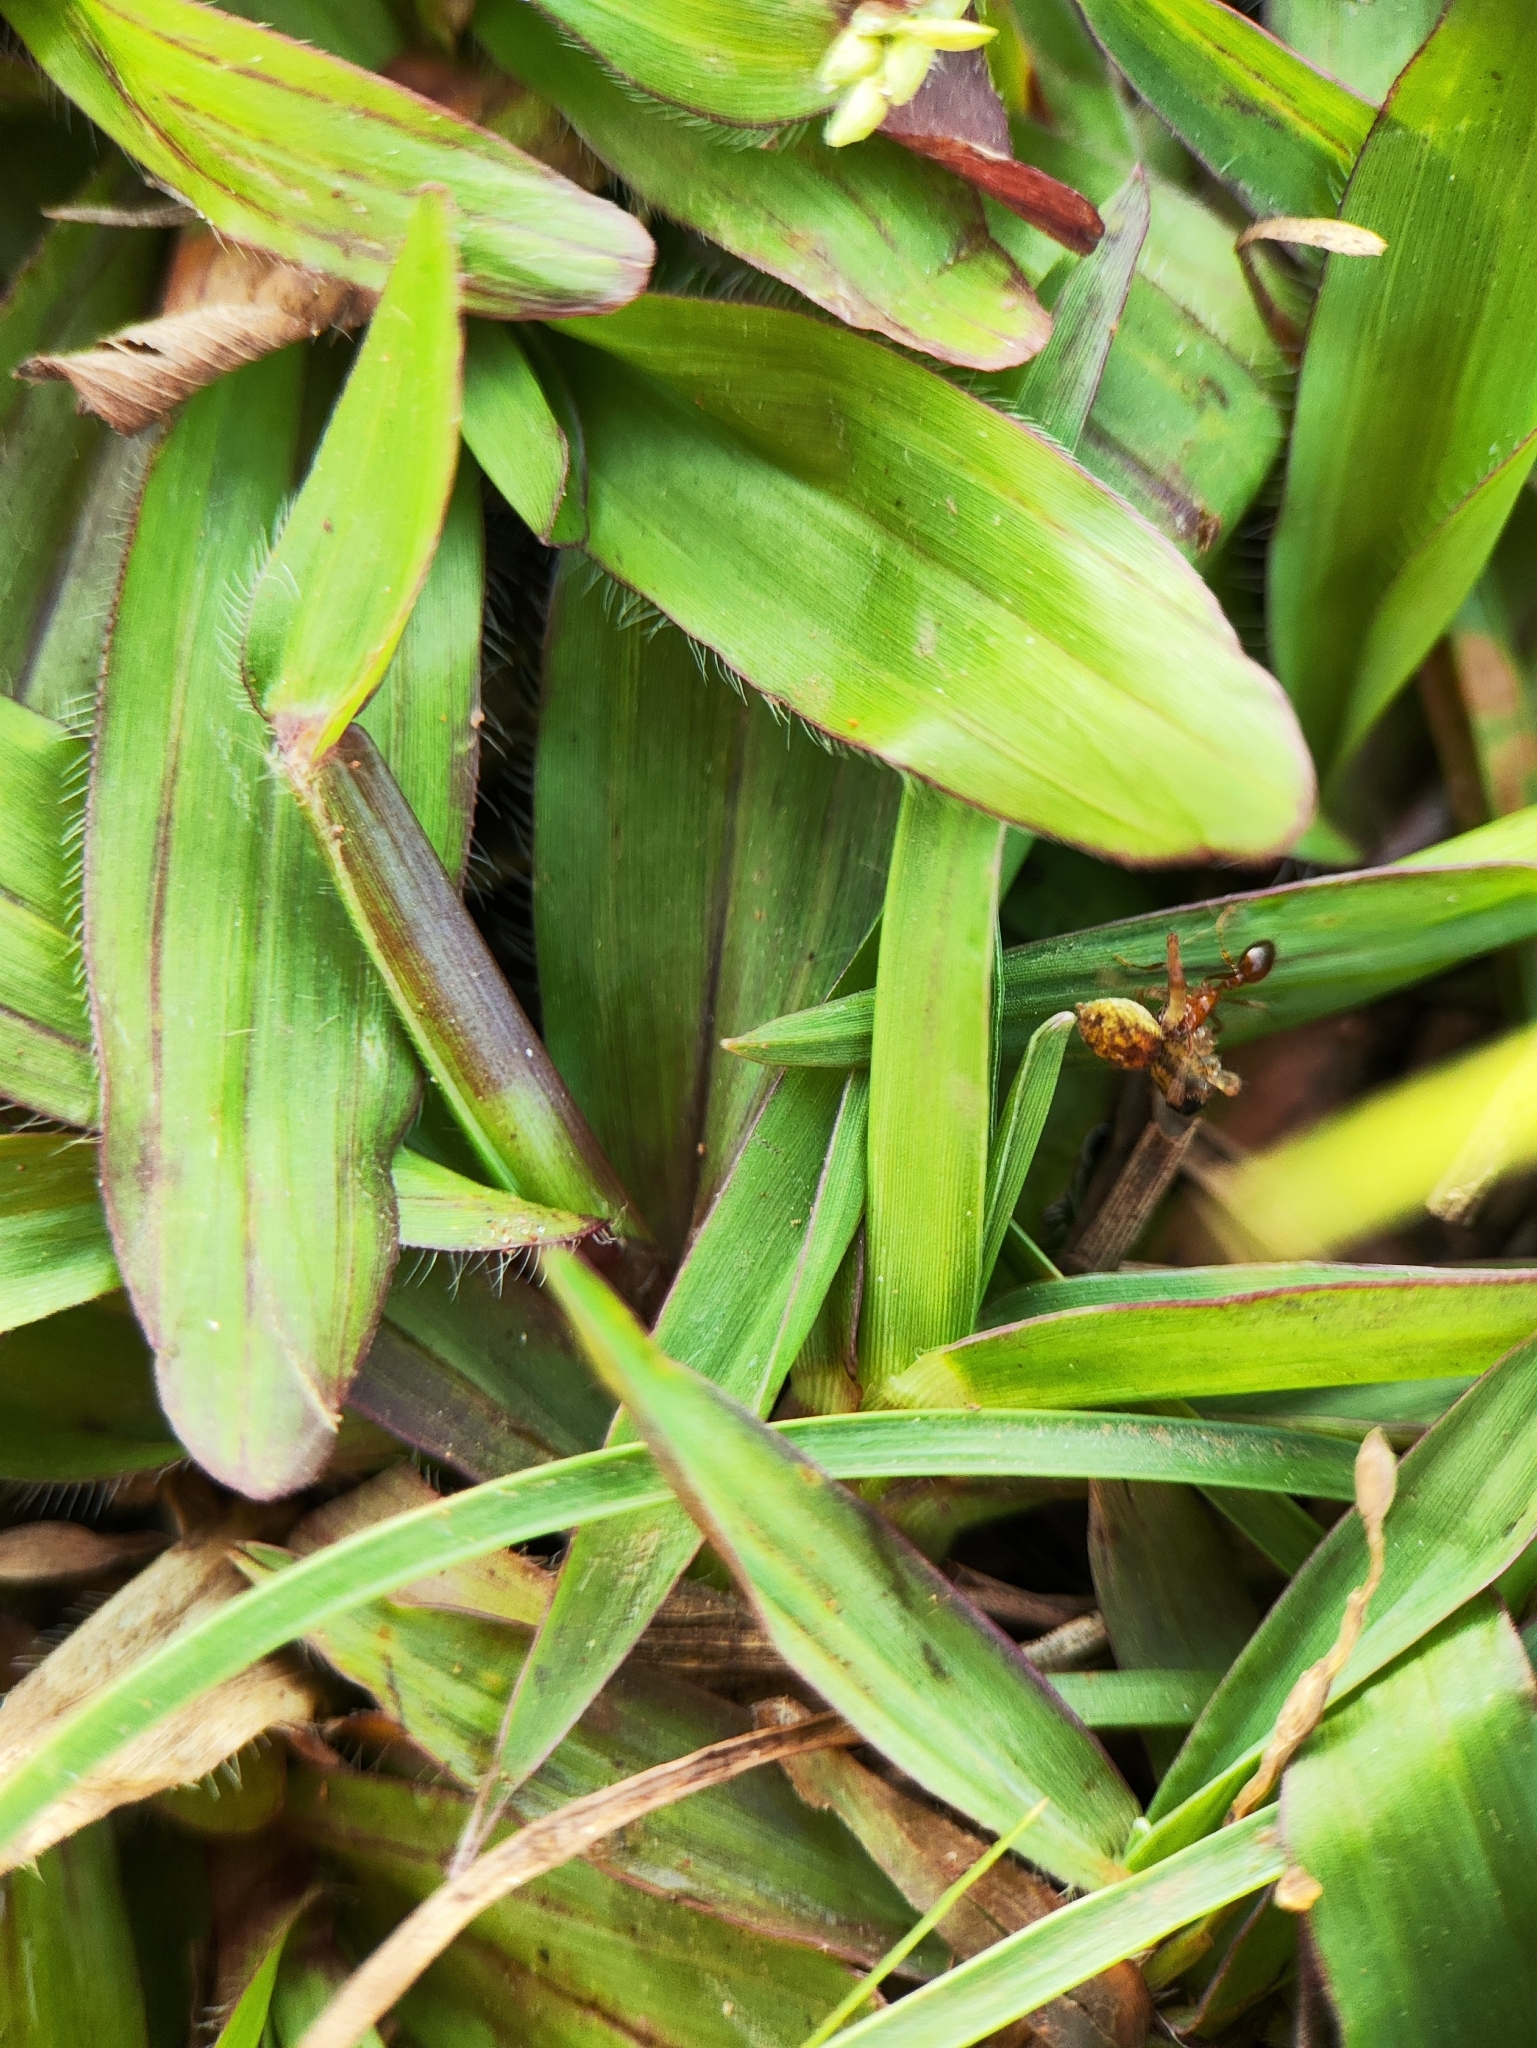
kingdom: Animalia
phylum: Arthropoda
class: Insecta
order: Hymenoptera
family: Formicidae
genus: Solenopsis
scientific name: Solenopsis geminata
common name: Tropical fire ant
